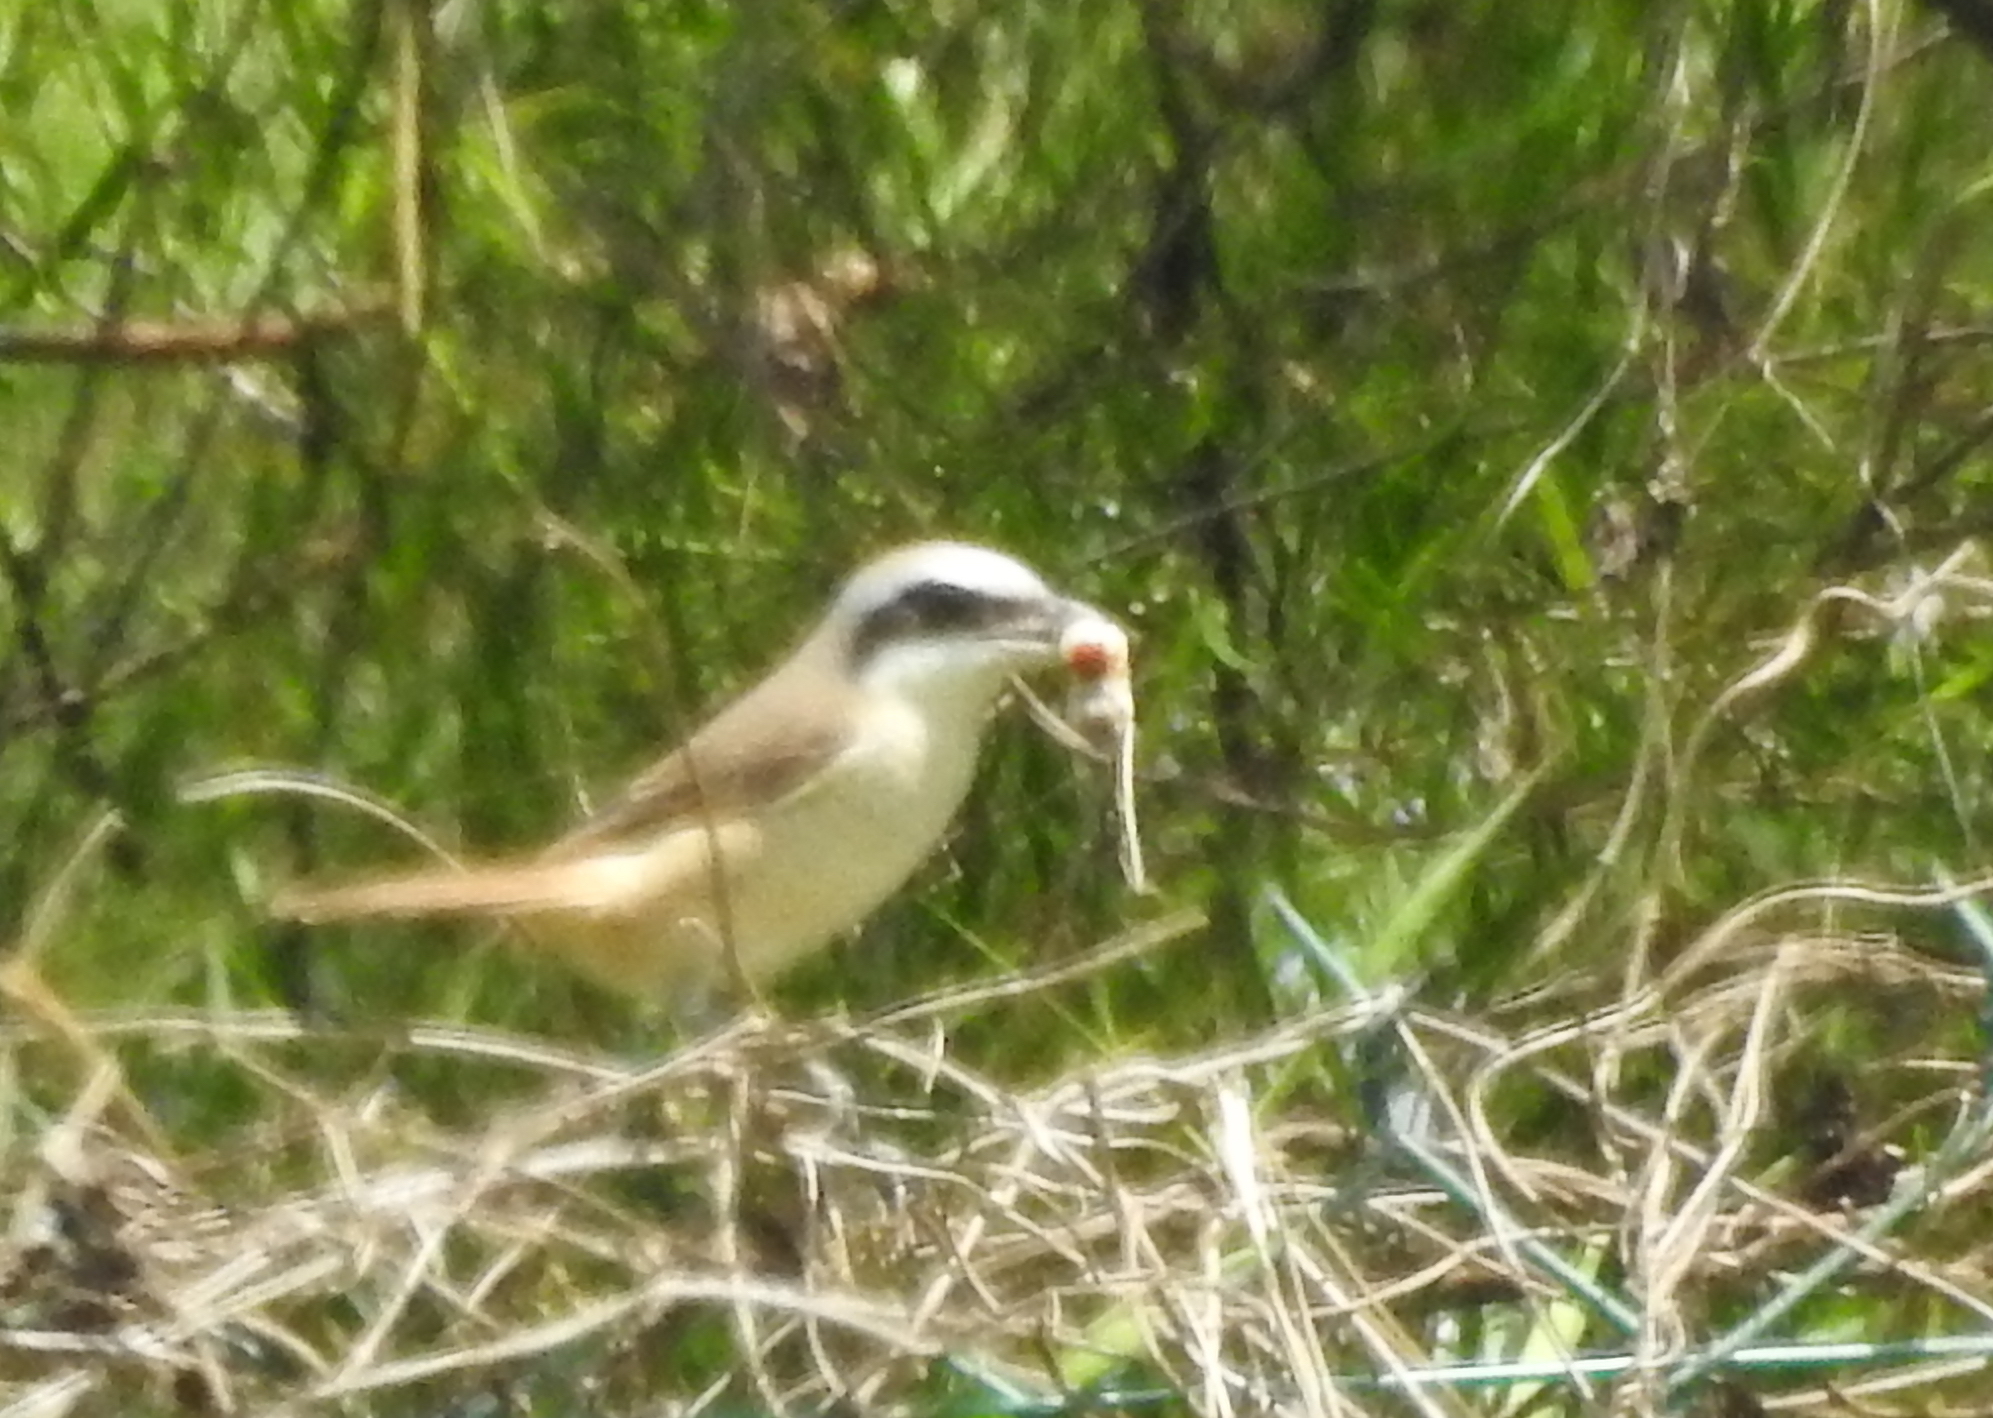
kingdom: Animalia
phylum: Chordata
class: Aves
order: Passeriformes
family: Laniidae
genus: Lanius
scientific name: Lanius cristatus
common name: Brown shrike
